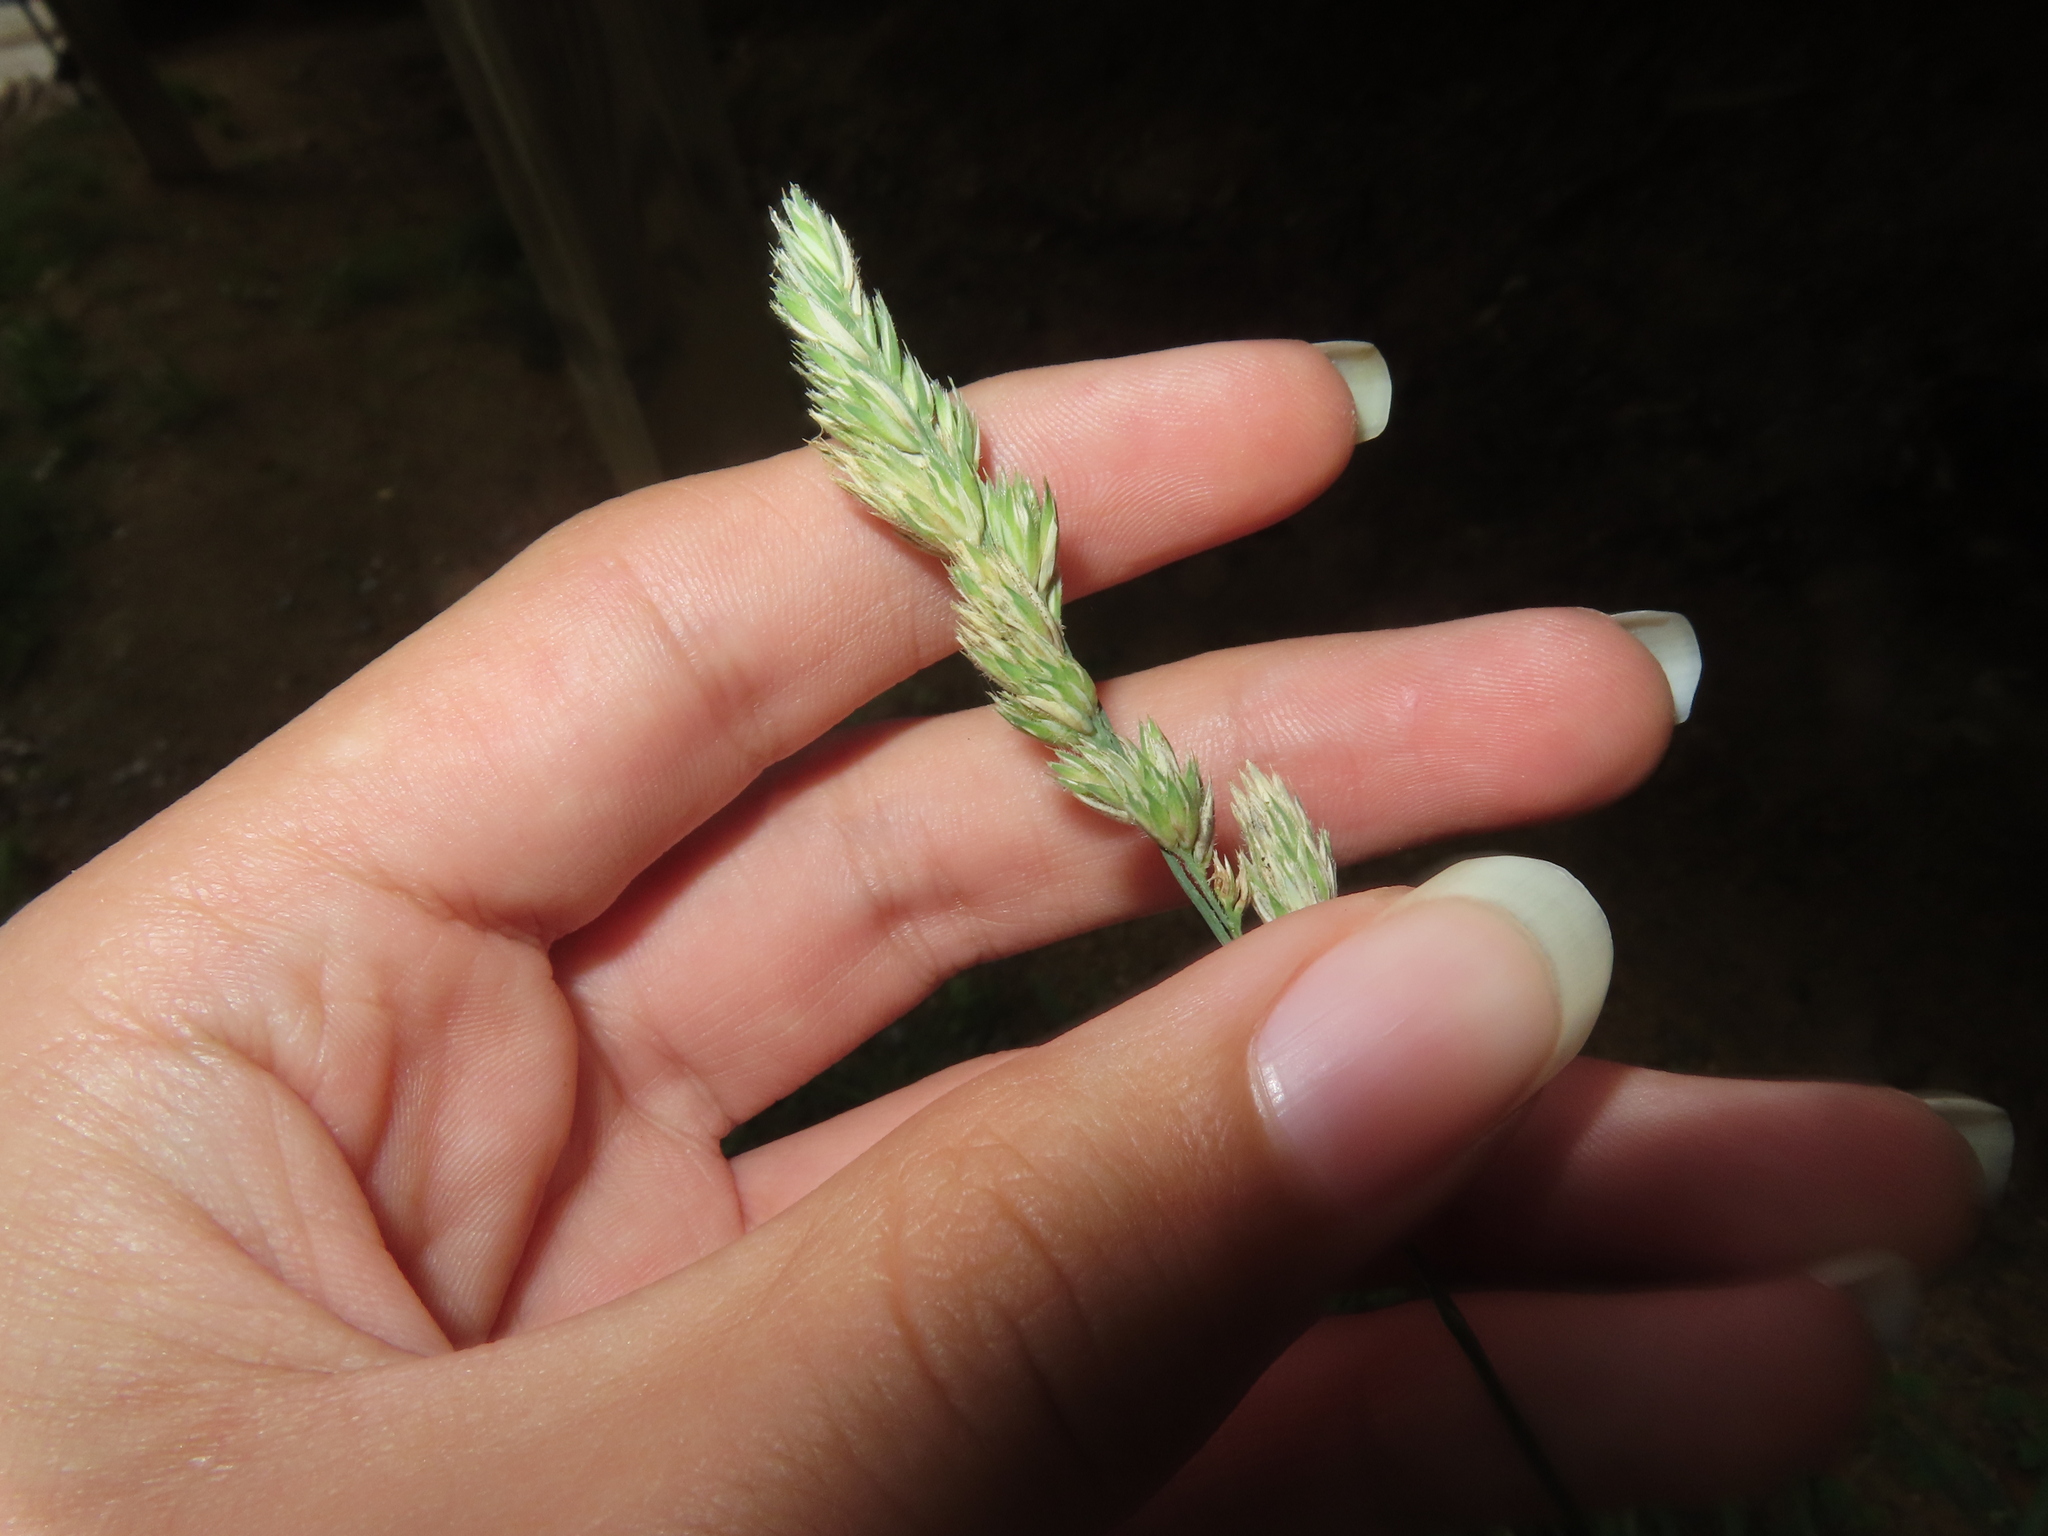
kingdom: Plantae
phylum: Tracheophyta
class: Liliopsida
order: Poales
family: Poaceae
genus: Dactylis
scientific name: Dactylis glomerata
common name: Orchardgrass
